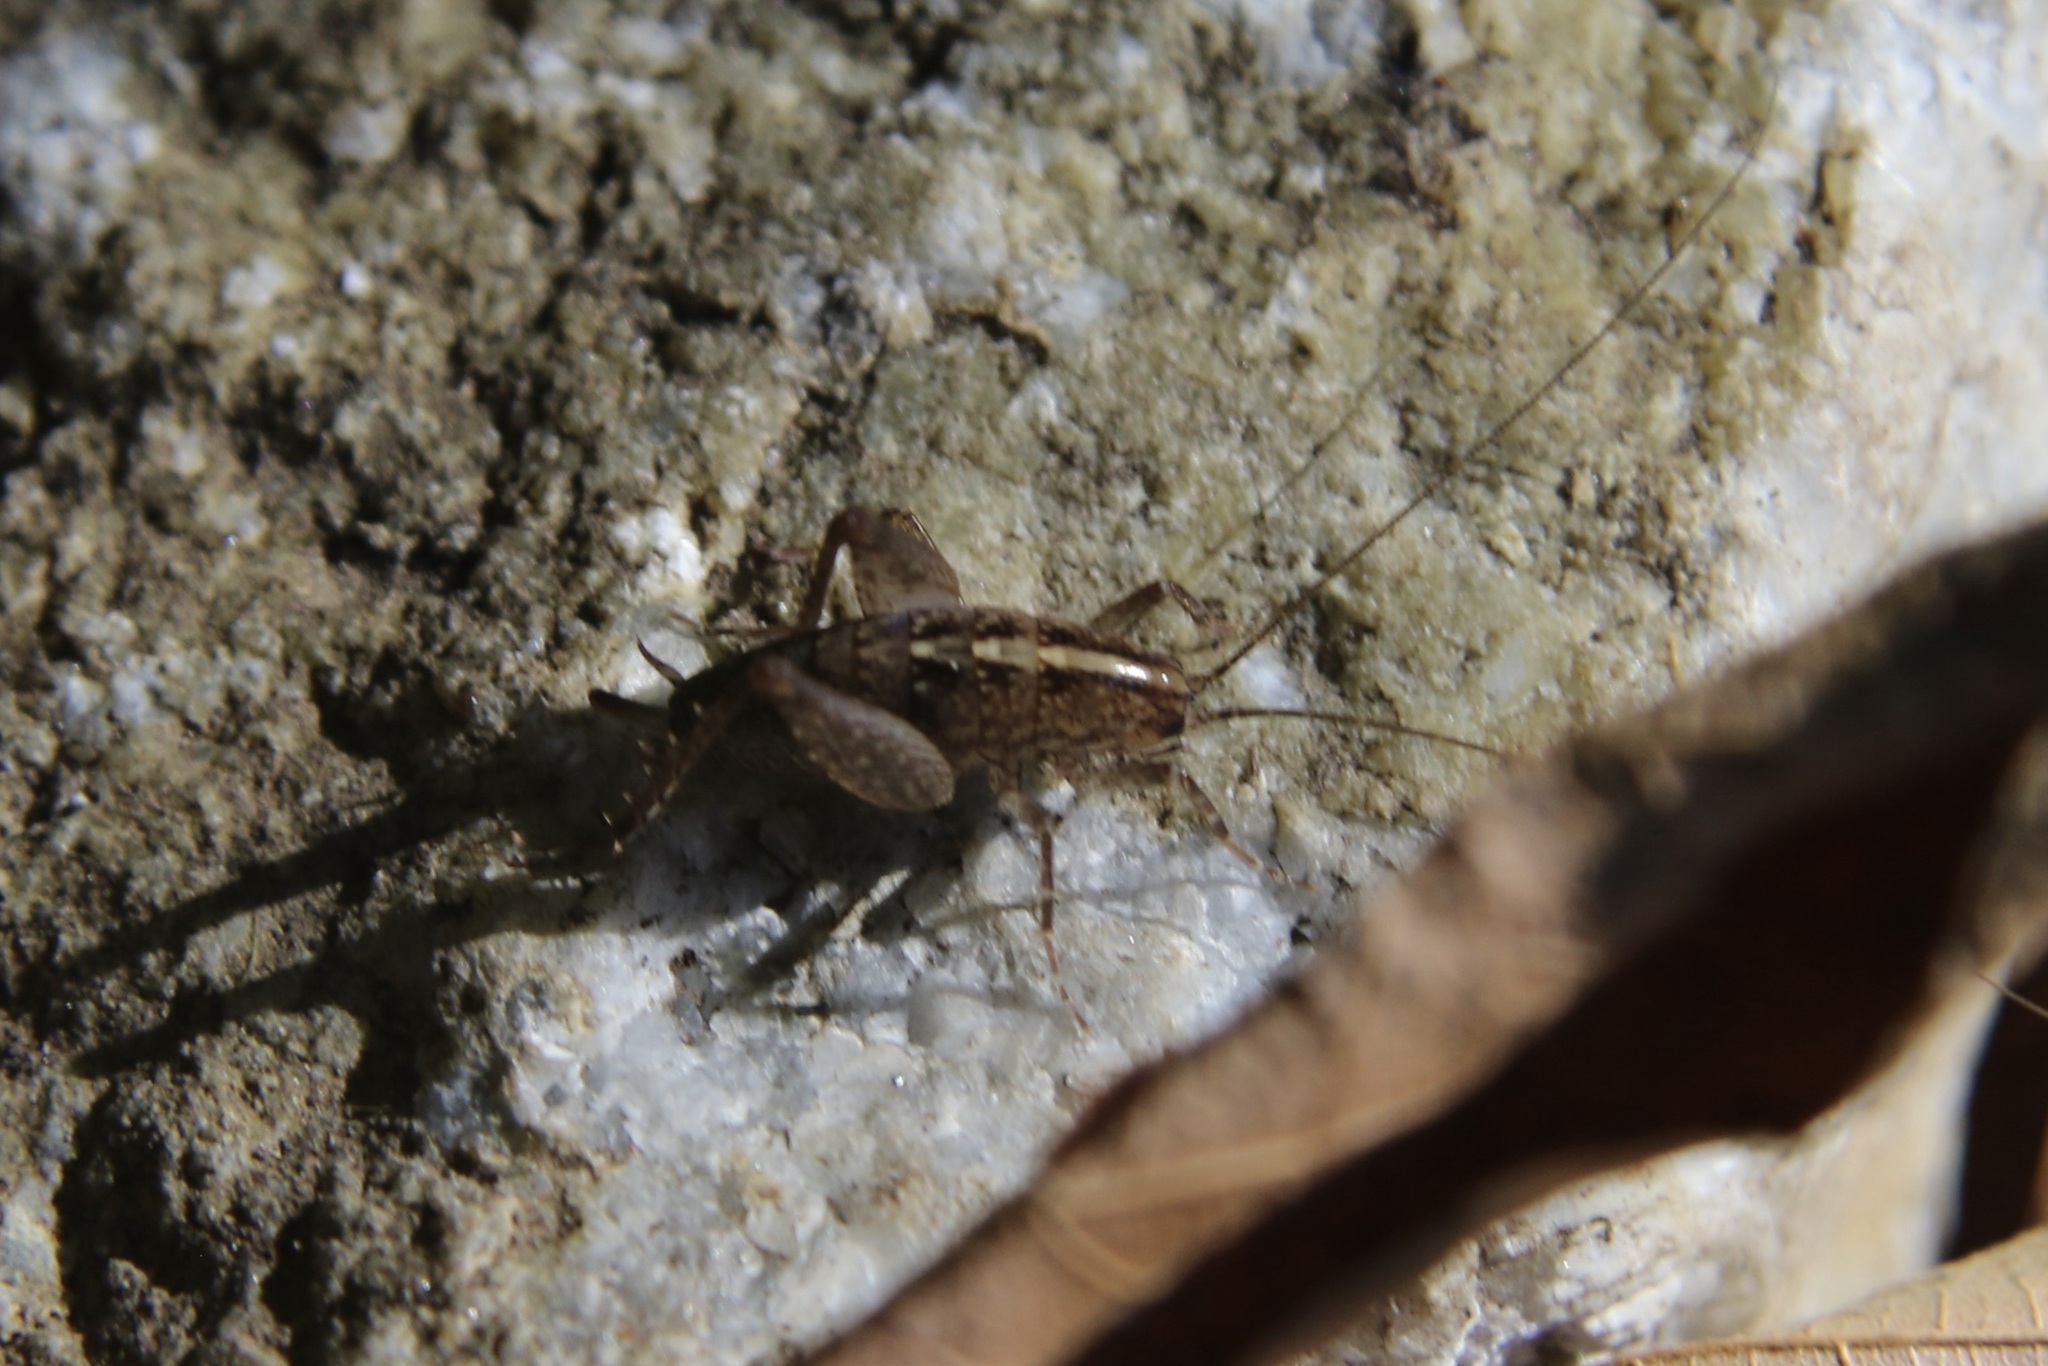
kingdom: Animalia
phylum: Arthropoda
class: Insecta
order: Orthoptera
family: Rhaphidophoridae
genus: Pristoceuthophilus
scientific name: Pristoceuthophilus
